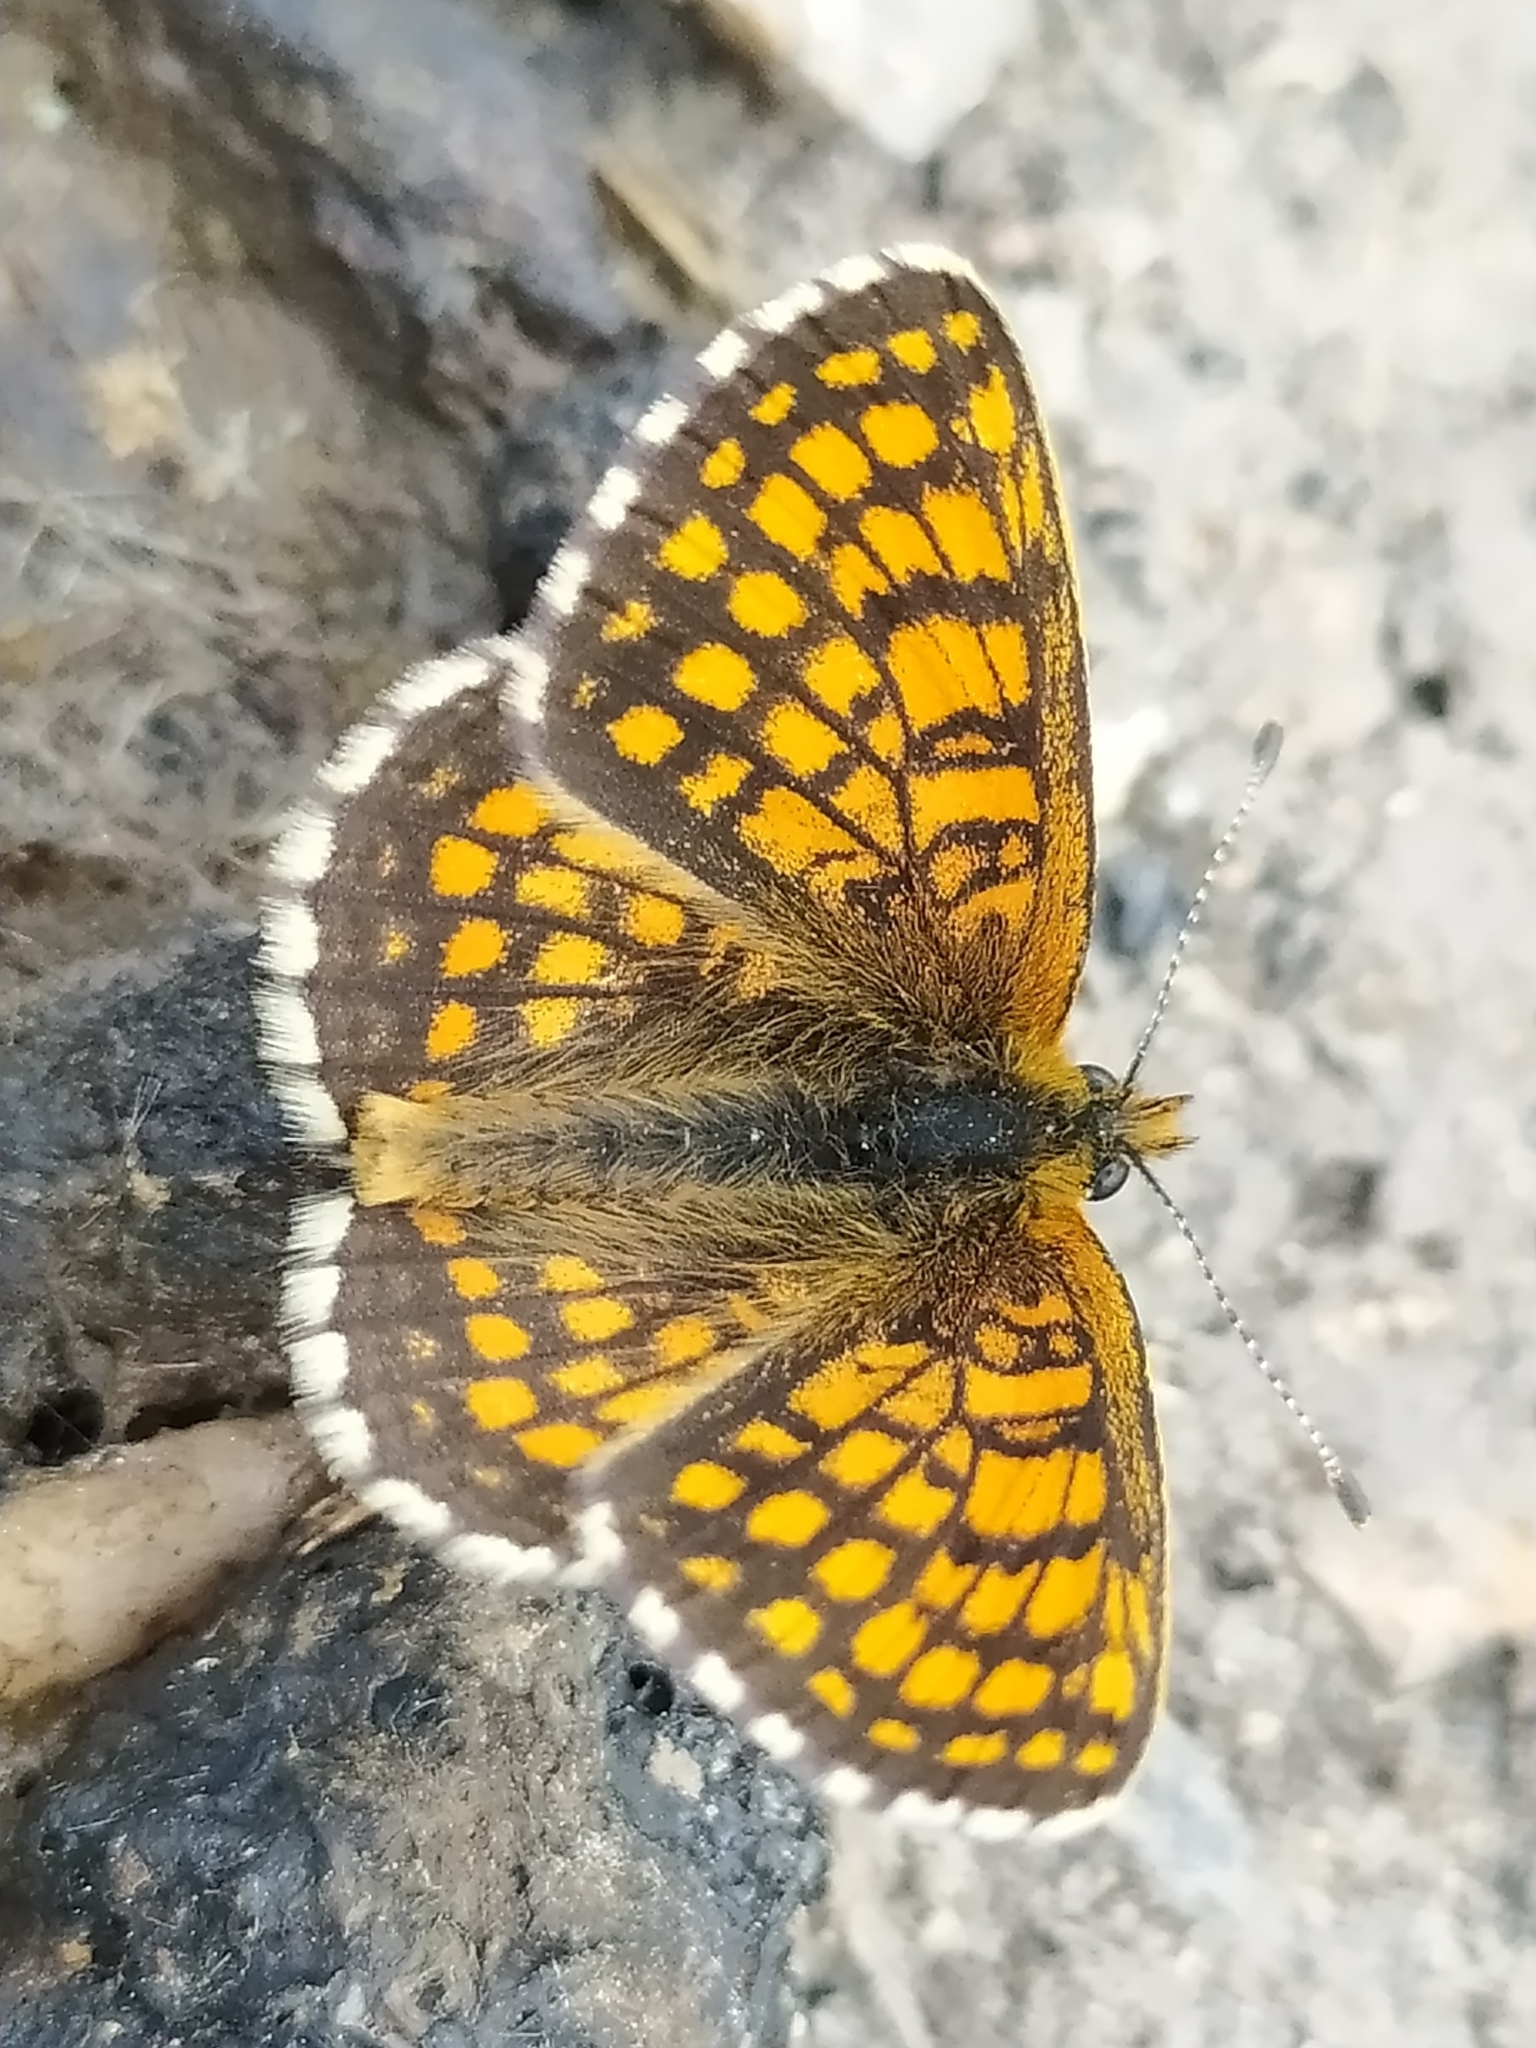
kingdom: Animalia
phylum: Arthropoda
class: Insecta
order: Lepidoptera
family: Nymphalidae
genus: Melitaea
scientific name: Melitaea athalia
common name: Heath fritillary
